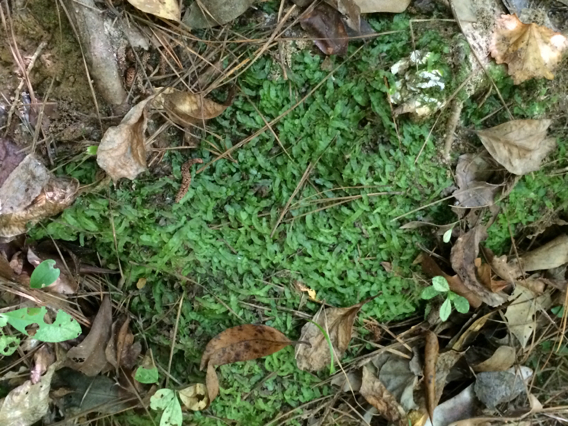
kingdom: Plantae
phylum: Marchantiophyta
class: Jungermanniopsida
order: Pallaviciniales
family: Pallaviciniaceae
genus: Pallavicinia
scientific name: Pallavicinia lyellii
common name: Veilwort
